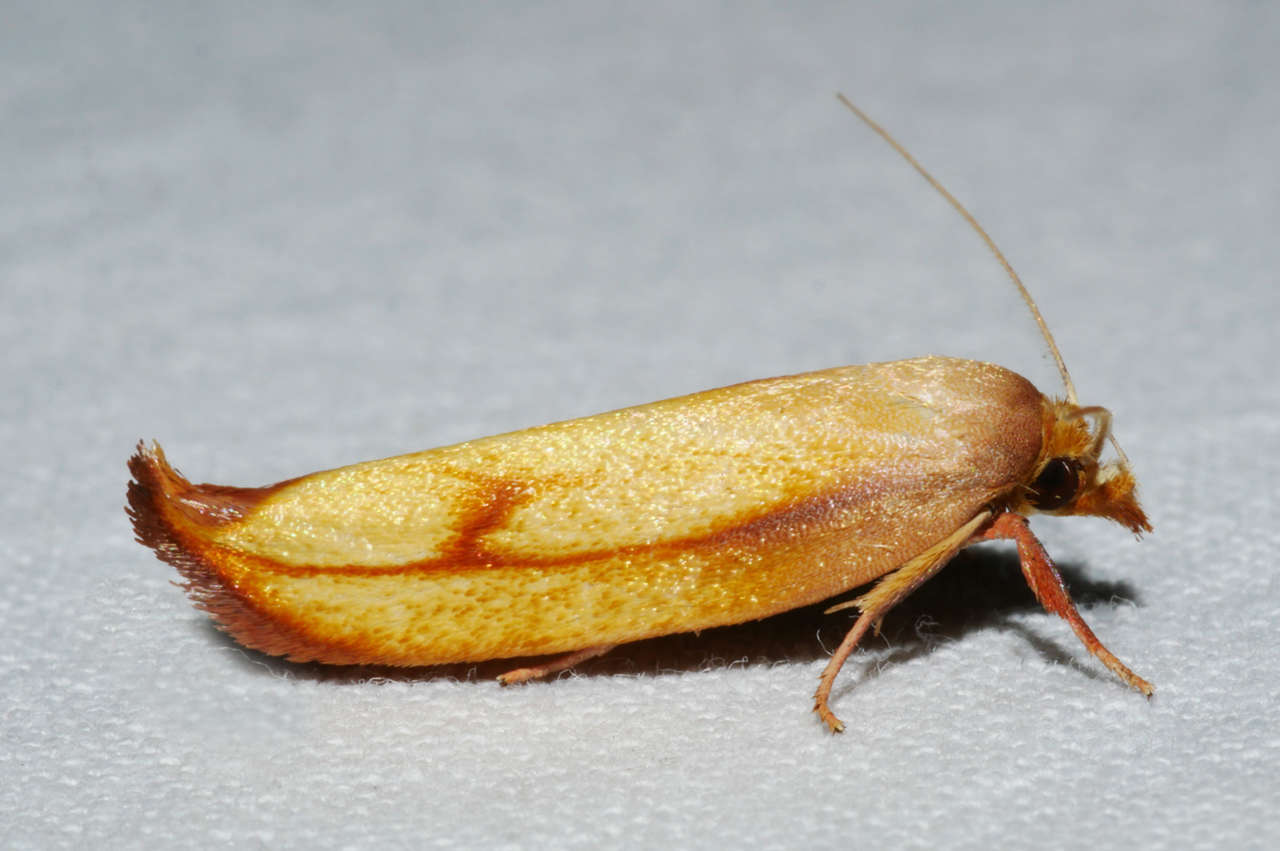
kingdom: Animalia
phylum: Arthropoda
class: Insecta
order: Lepidoptera
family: Oecophoridae
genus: Wingia
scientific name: Wingia aurata
